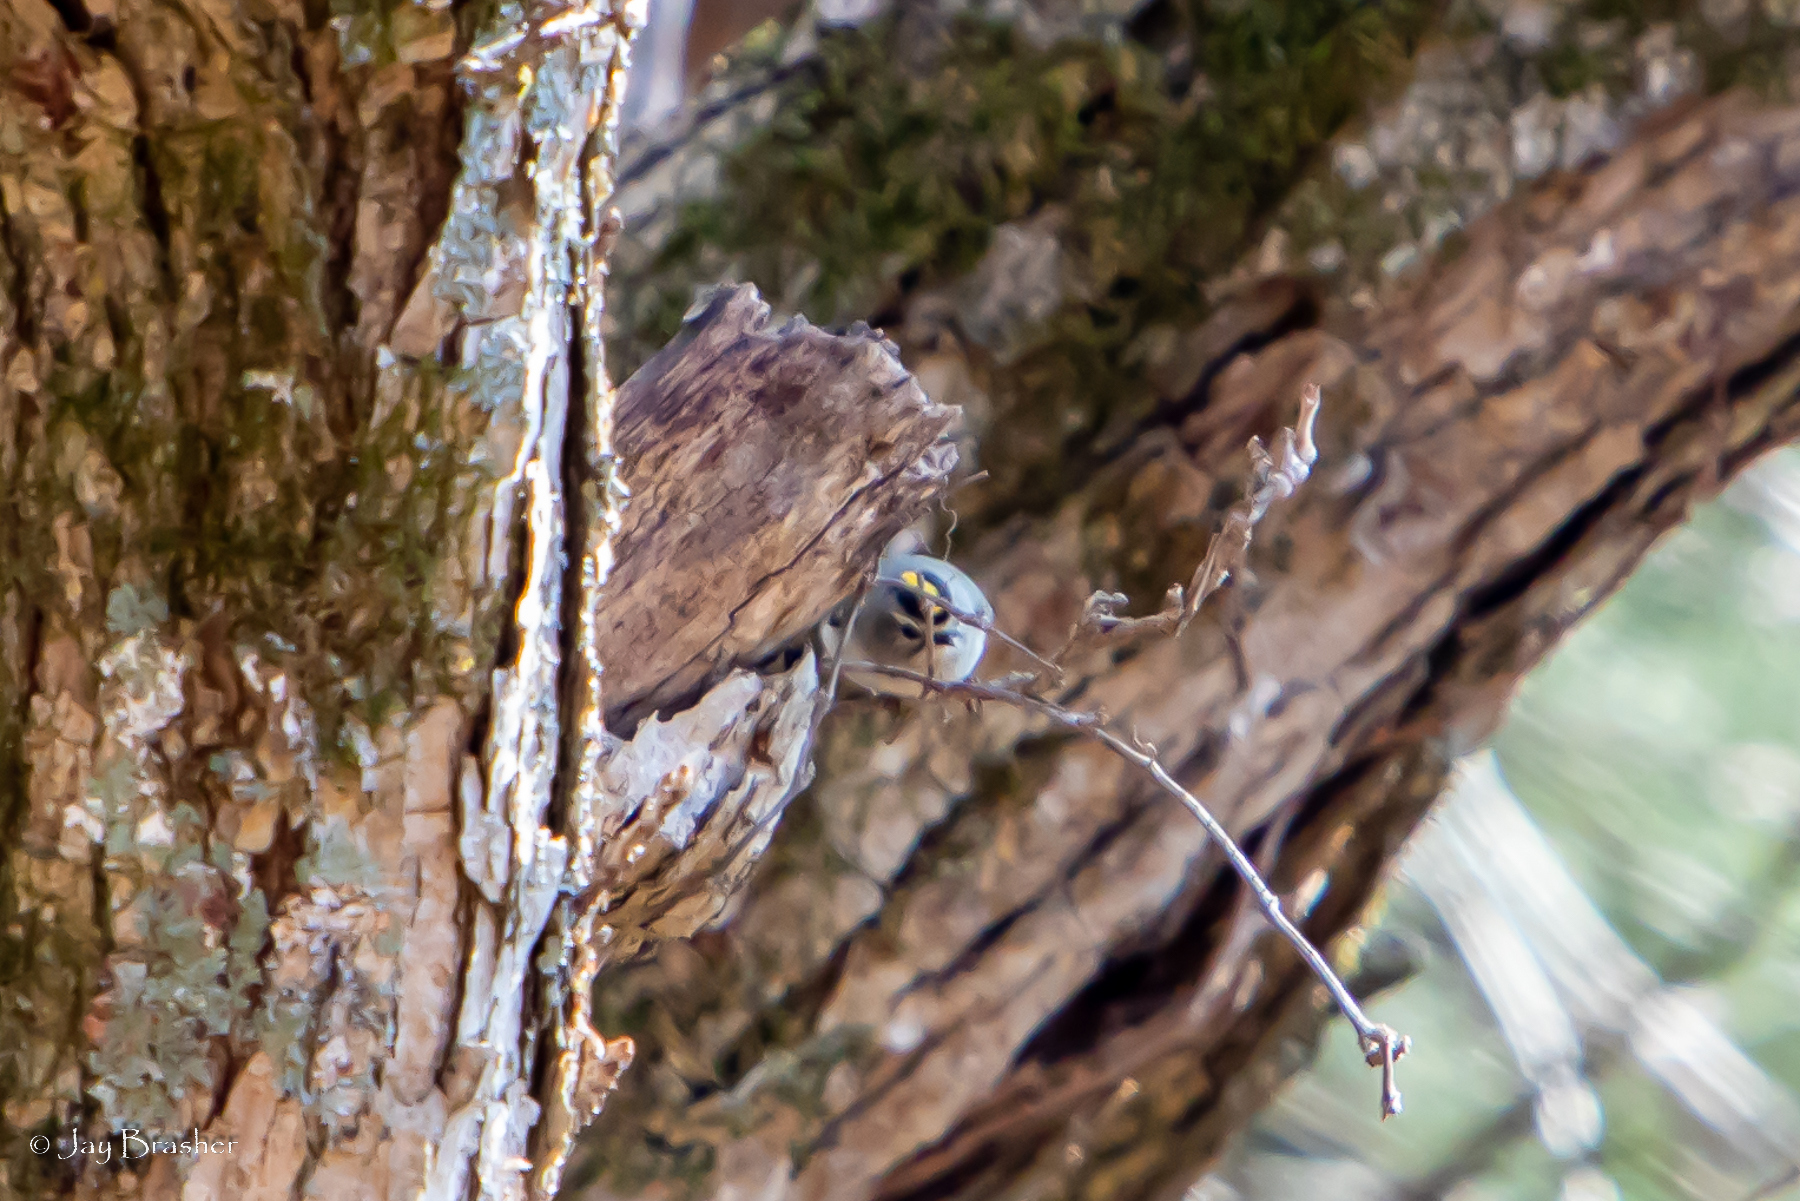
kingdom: Animalia
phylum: Chordata
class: Aves
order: Passeriformes
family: Regulidae
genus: Regulus
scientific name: Regulus satrapa
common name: Golden-crowned kinglet
